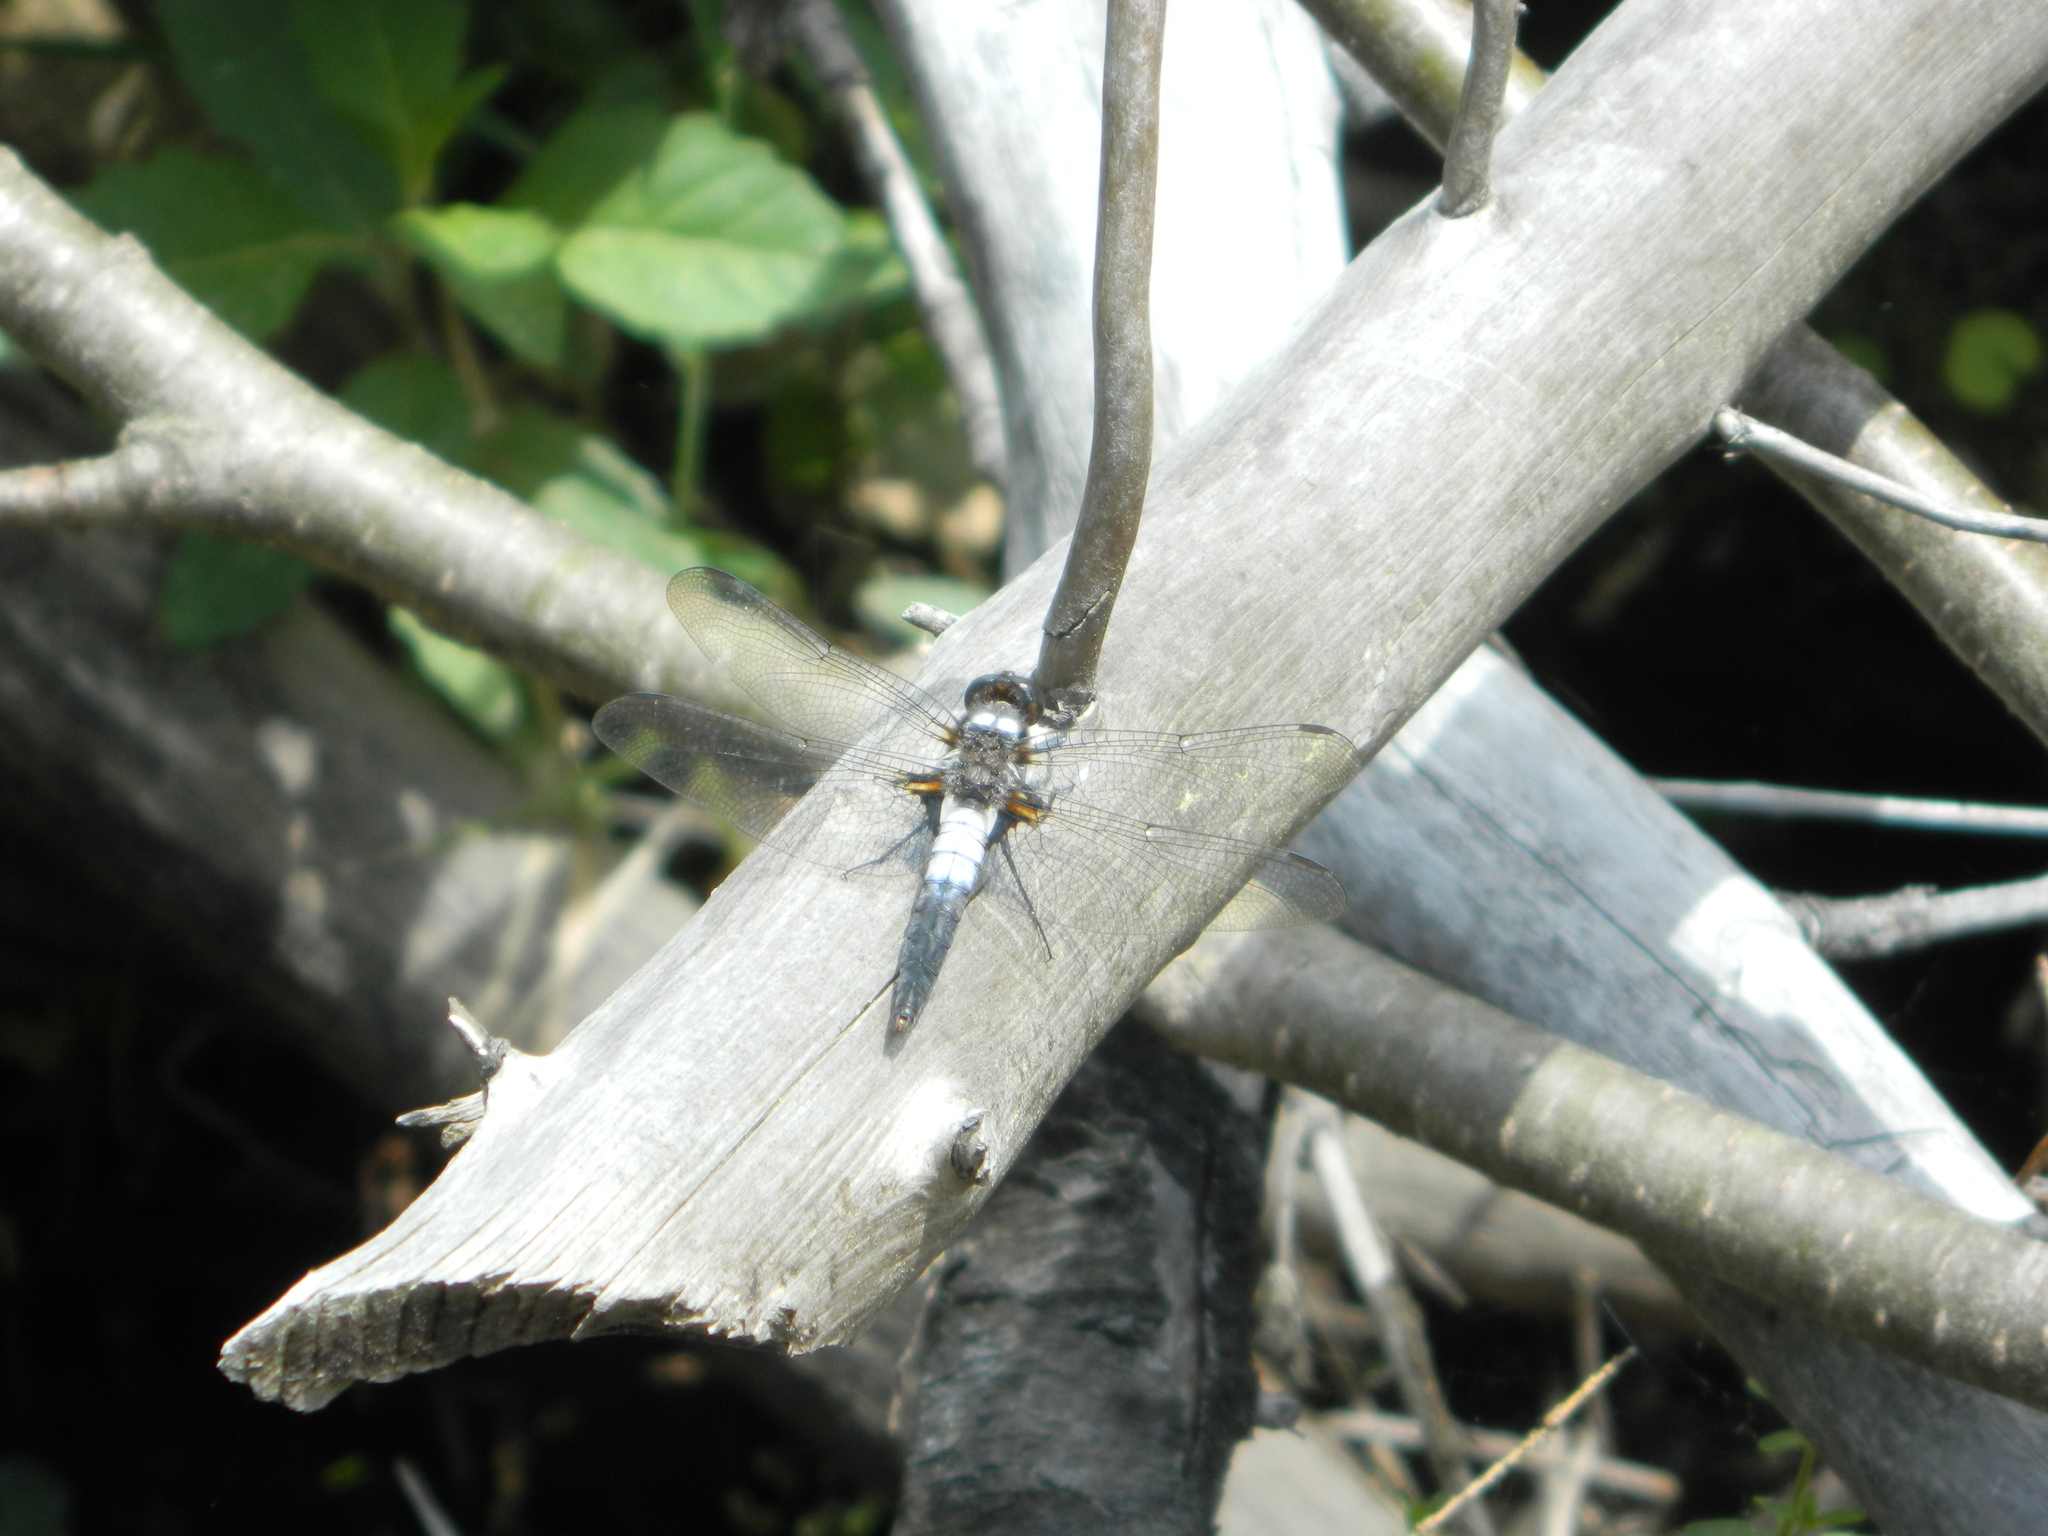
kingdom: Animalia
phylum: Arthropoda
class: Insecta
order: Odonata
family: Libellulidae
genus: Ladona
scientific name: Ladona julia
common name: Chalk-fronted corporal
